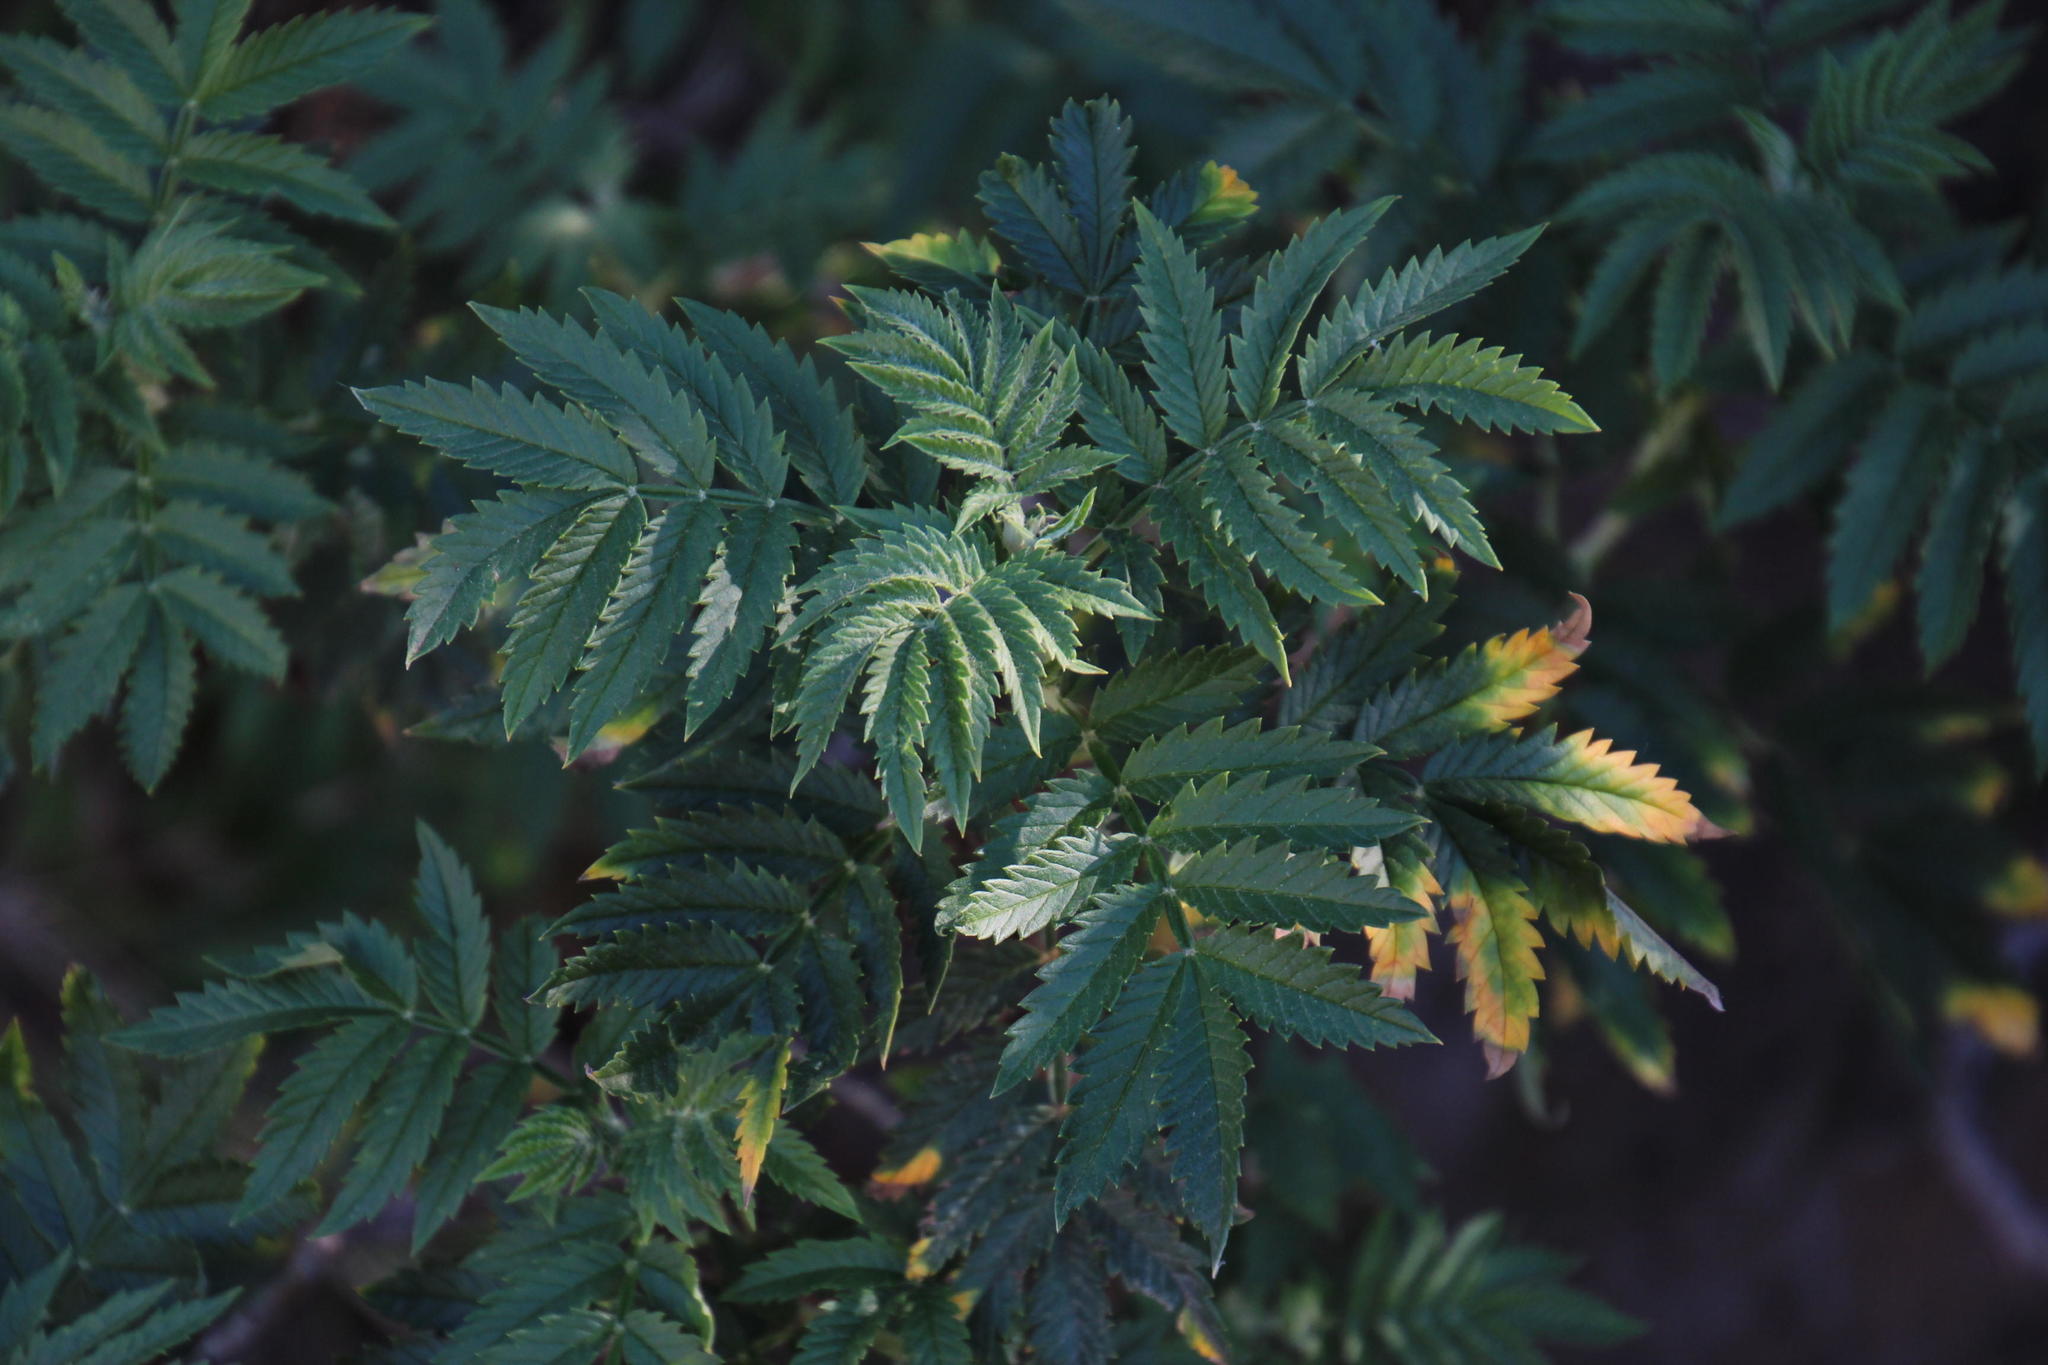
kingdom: Plantae
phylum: Tracheophyta
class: Magnoliopsida
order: Geraniales
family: Melianthaceae
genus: Melianthus
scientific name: Melianthus comosus
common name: Touch-me-not
